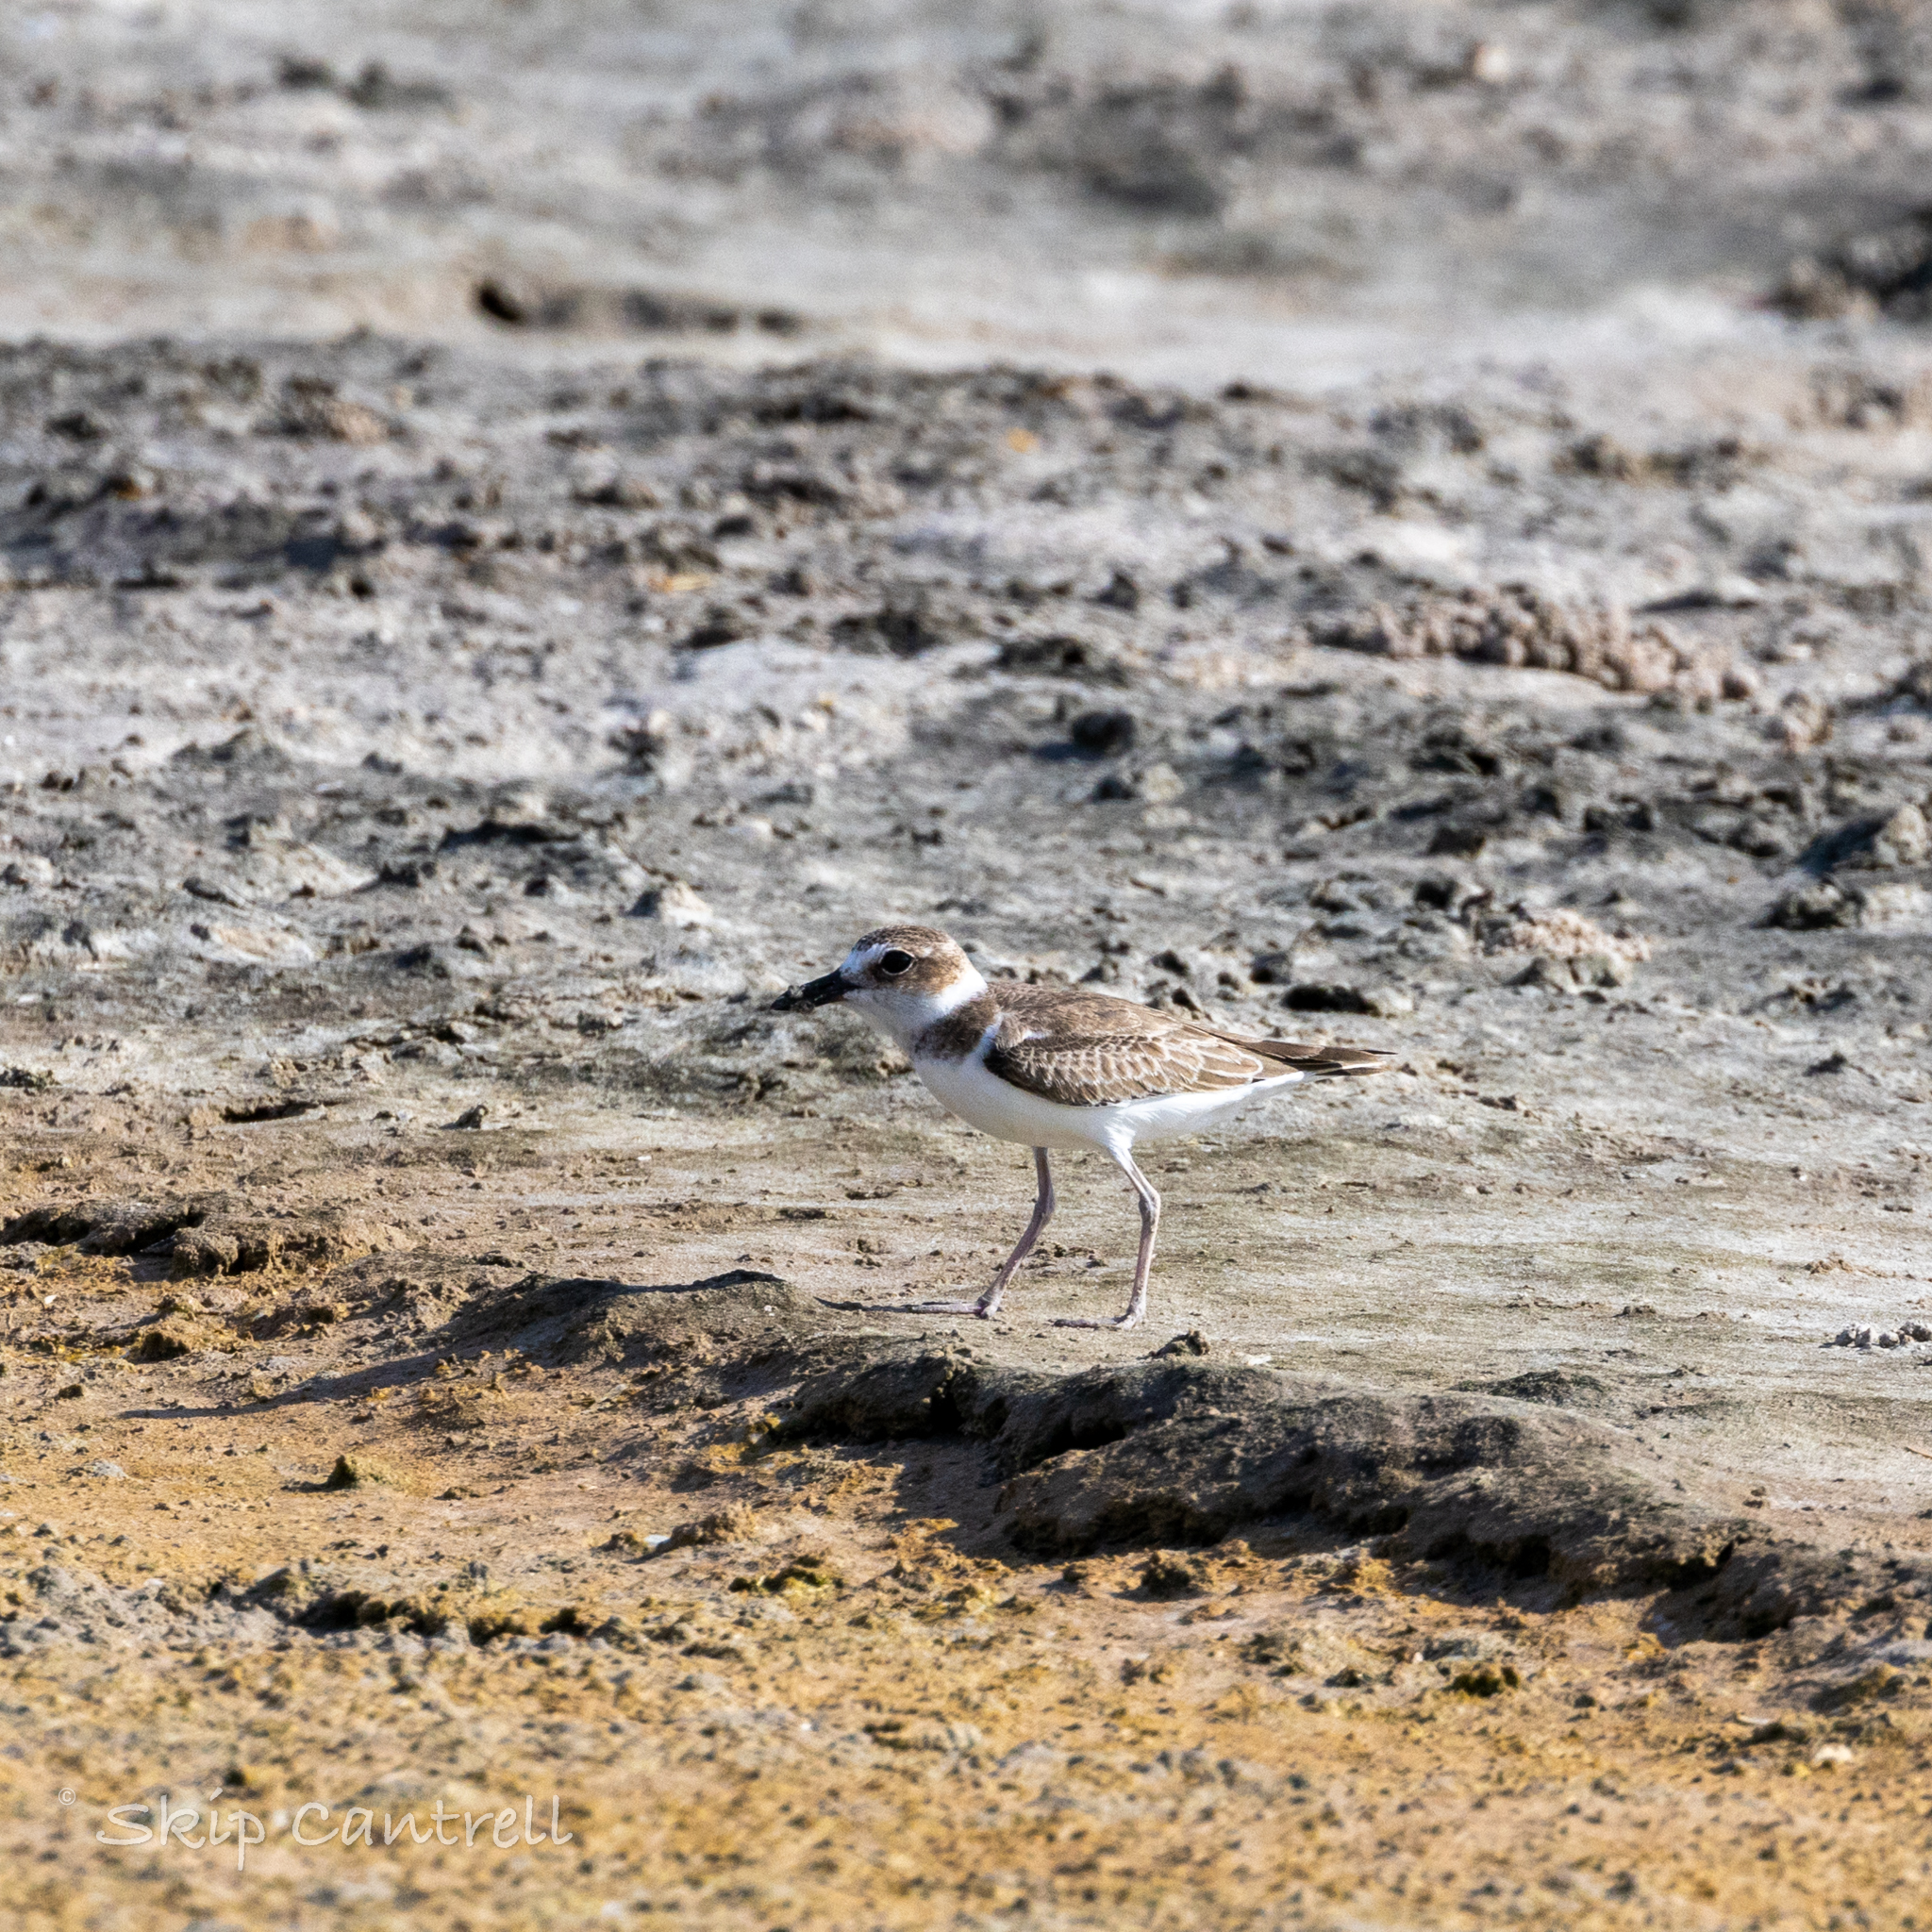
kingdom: Animalia
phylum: Chordata
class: Aves
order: Charadriiformes
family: Charadriidae
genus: Anarhynchus
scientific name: Anarhynchus
